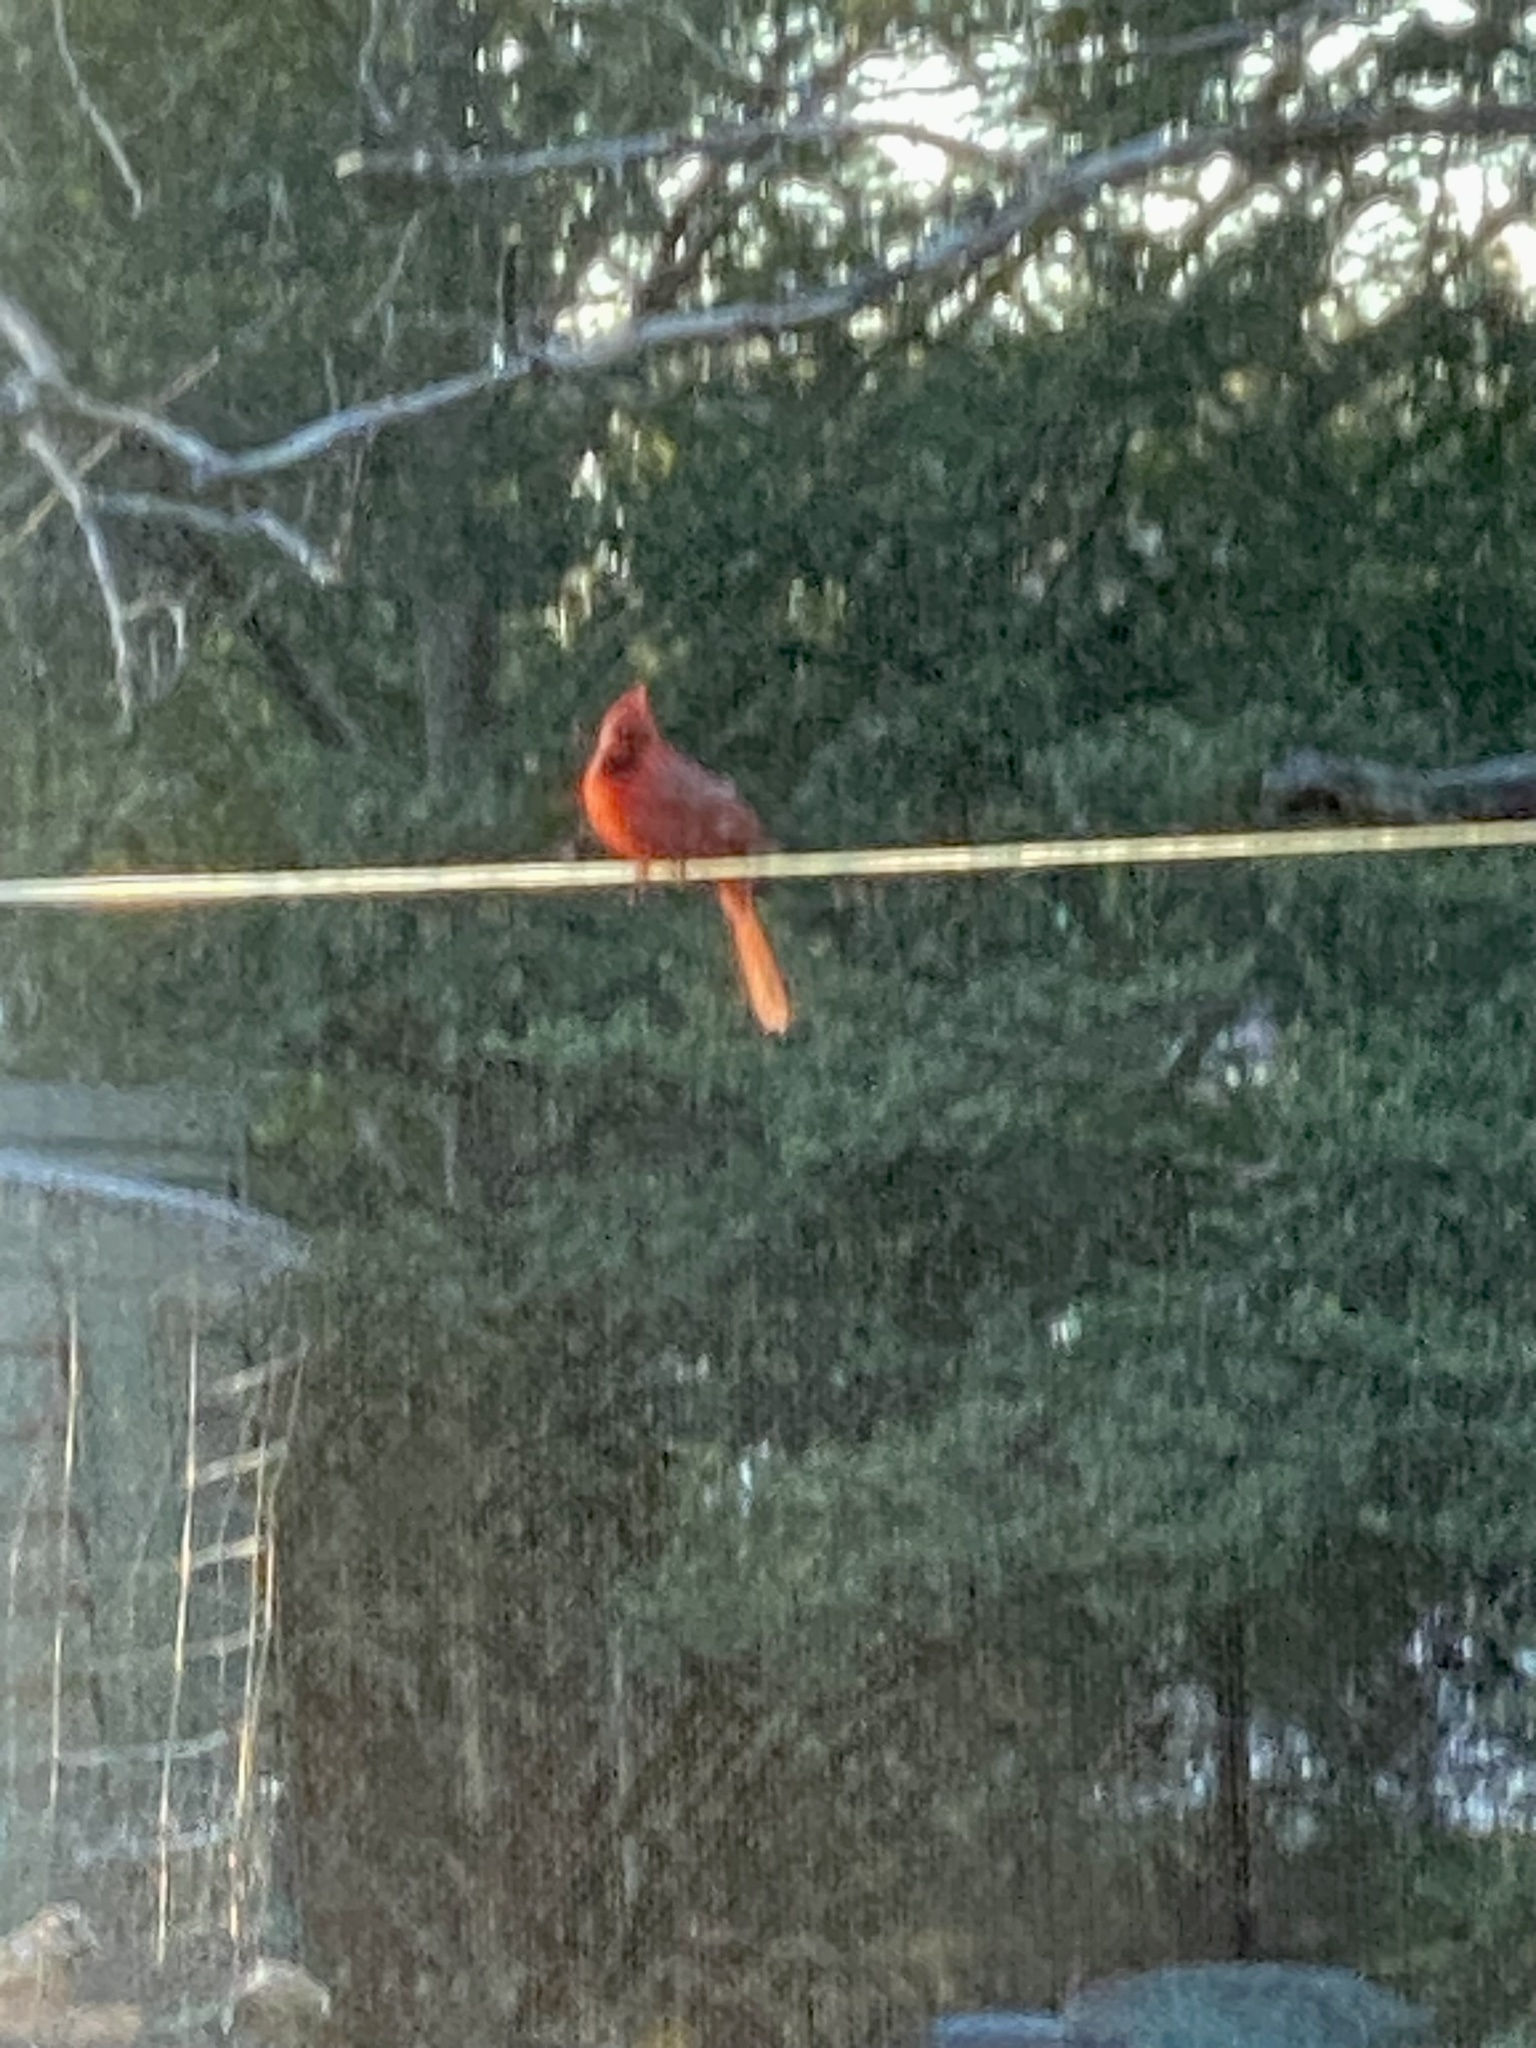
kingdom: Animalia
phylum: Chordata
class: Aves
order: Passeriformes
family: Cardinalidae
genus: Cardinalis
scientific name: Cardinalis cardinalis
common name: Northern cardinal
